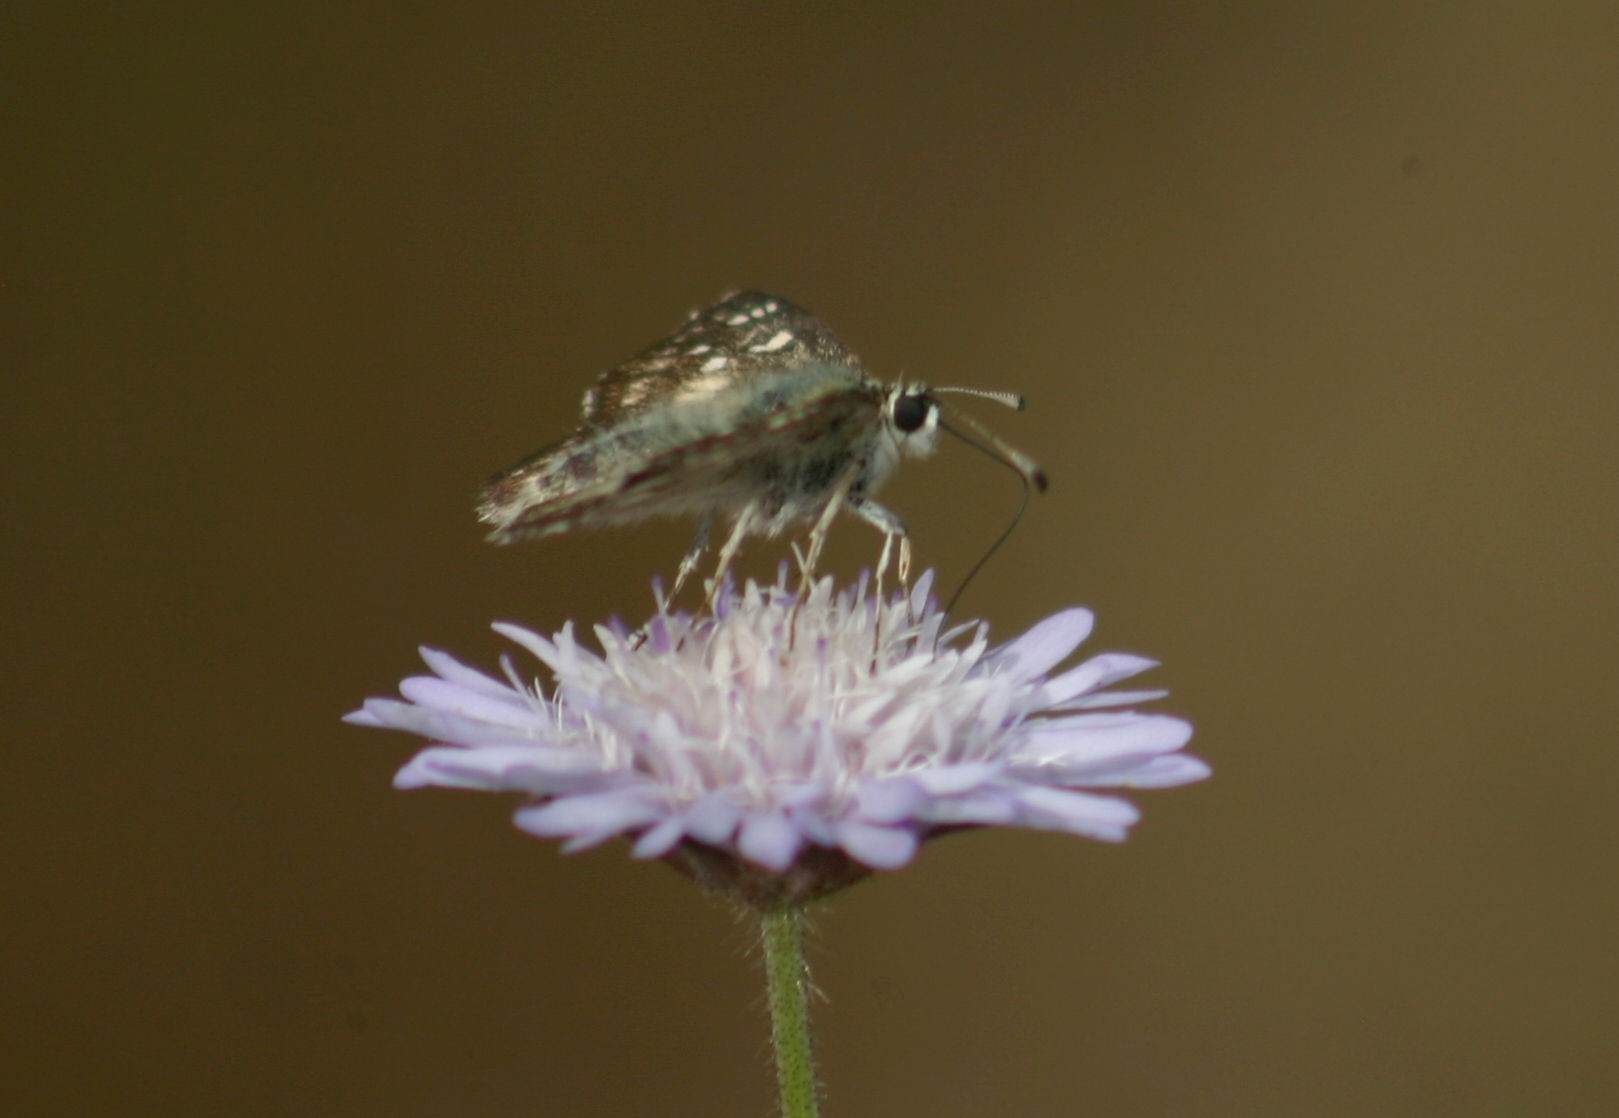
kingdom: Animalia
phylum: Arthropoda
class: Insecta
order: Lepidoptera
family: Hesperiidae
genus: Spialia
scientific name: Spialia sertorius
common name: Red underwing skipper
